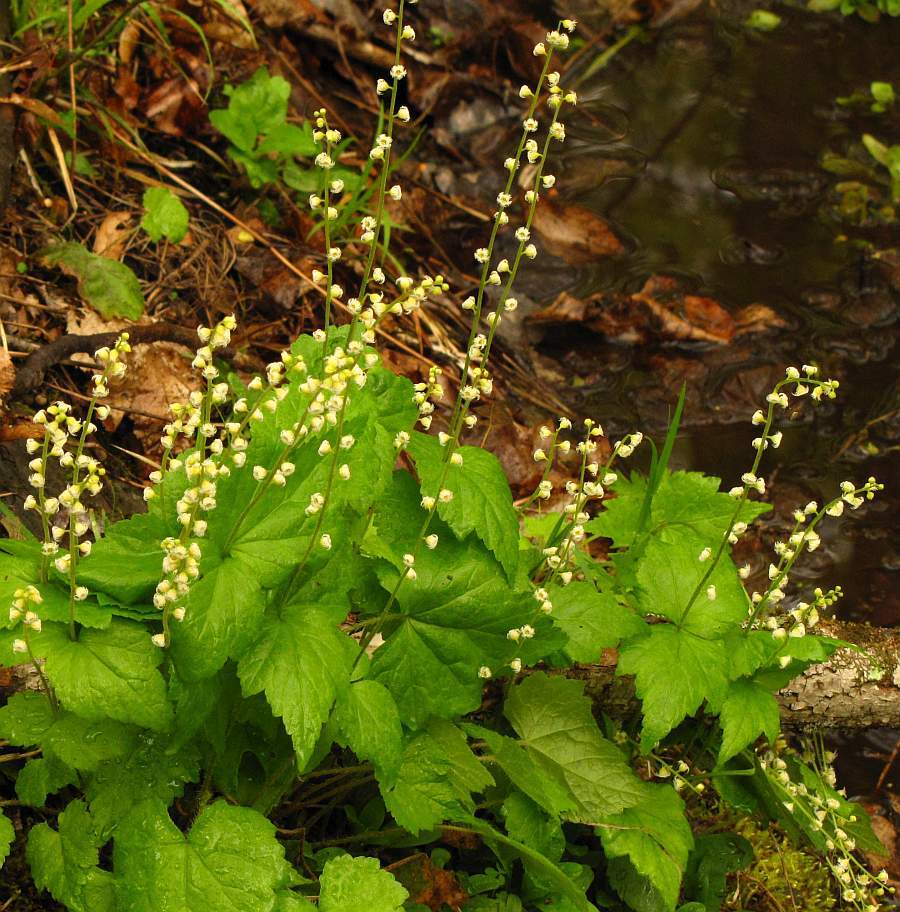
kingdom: Plantae
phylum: Tracheophyta
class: Magnoliopsida
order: Saxifragales
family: Saxifragaceae
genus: Mitella
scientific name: Mitella diphylla
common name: Coolwort
